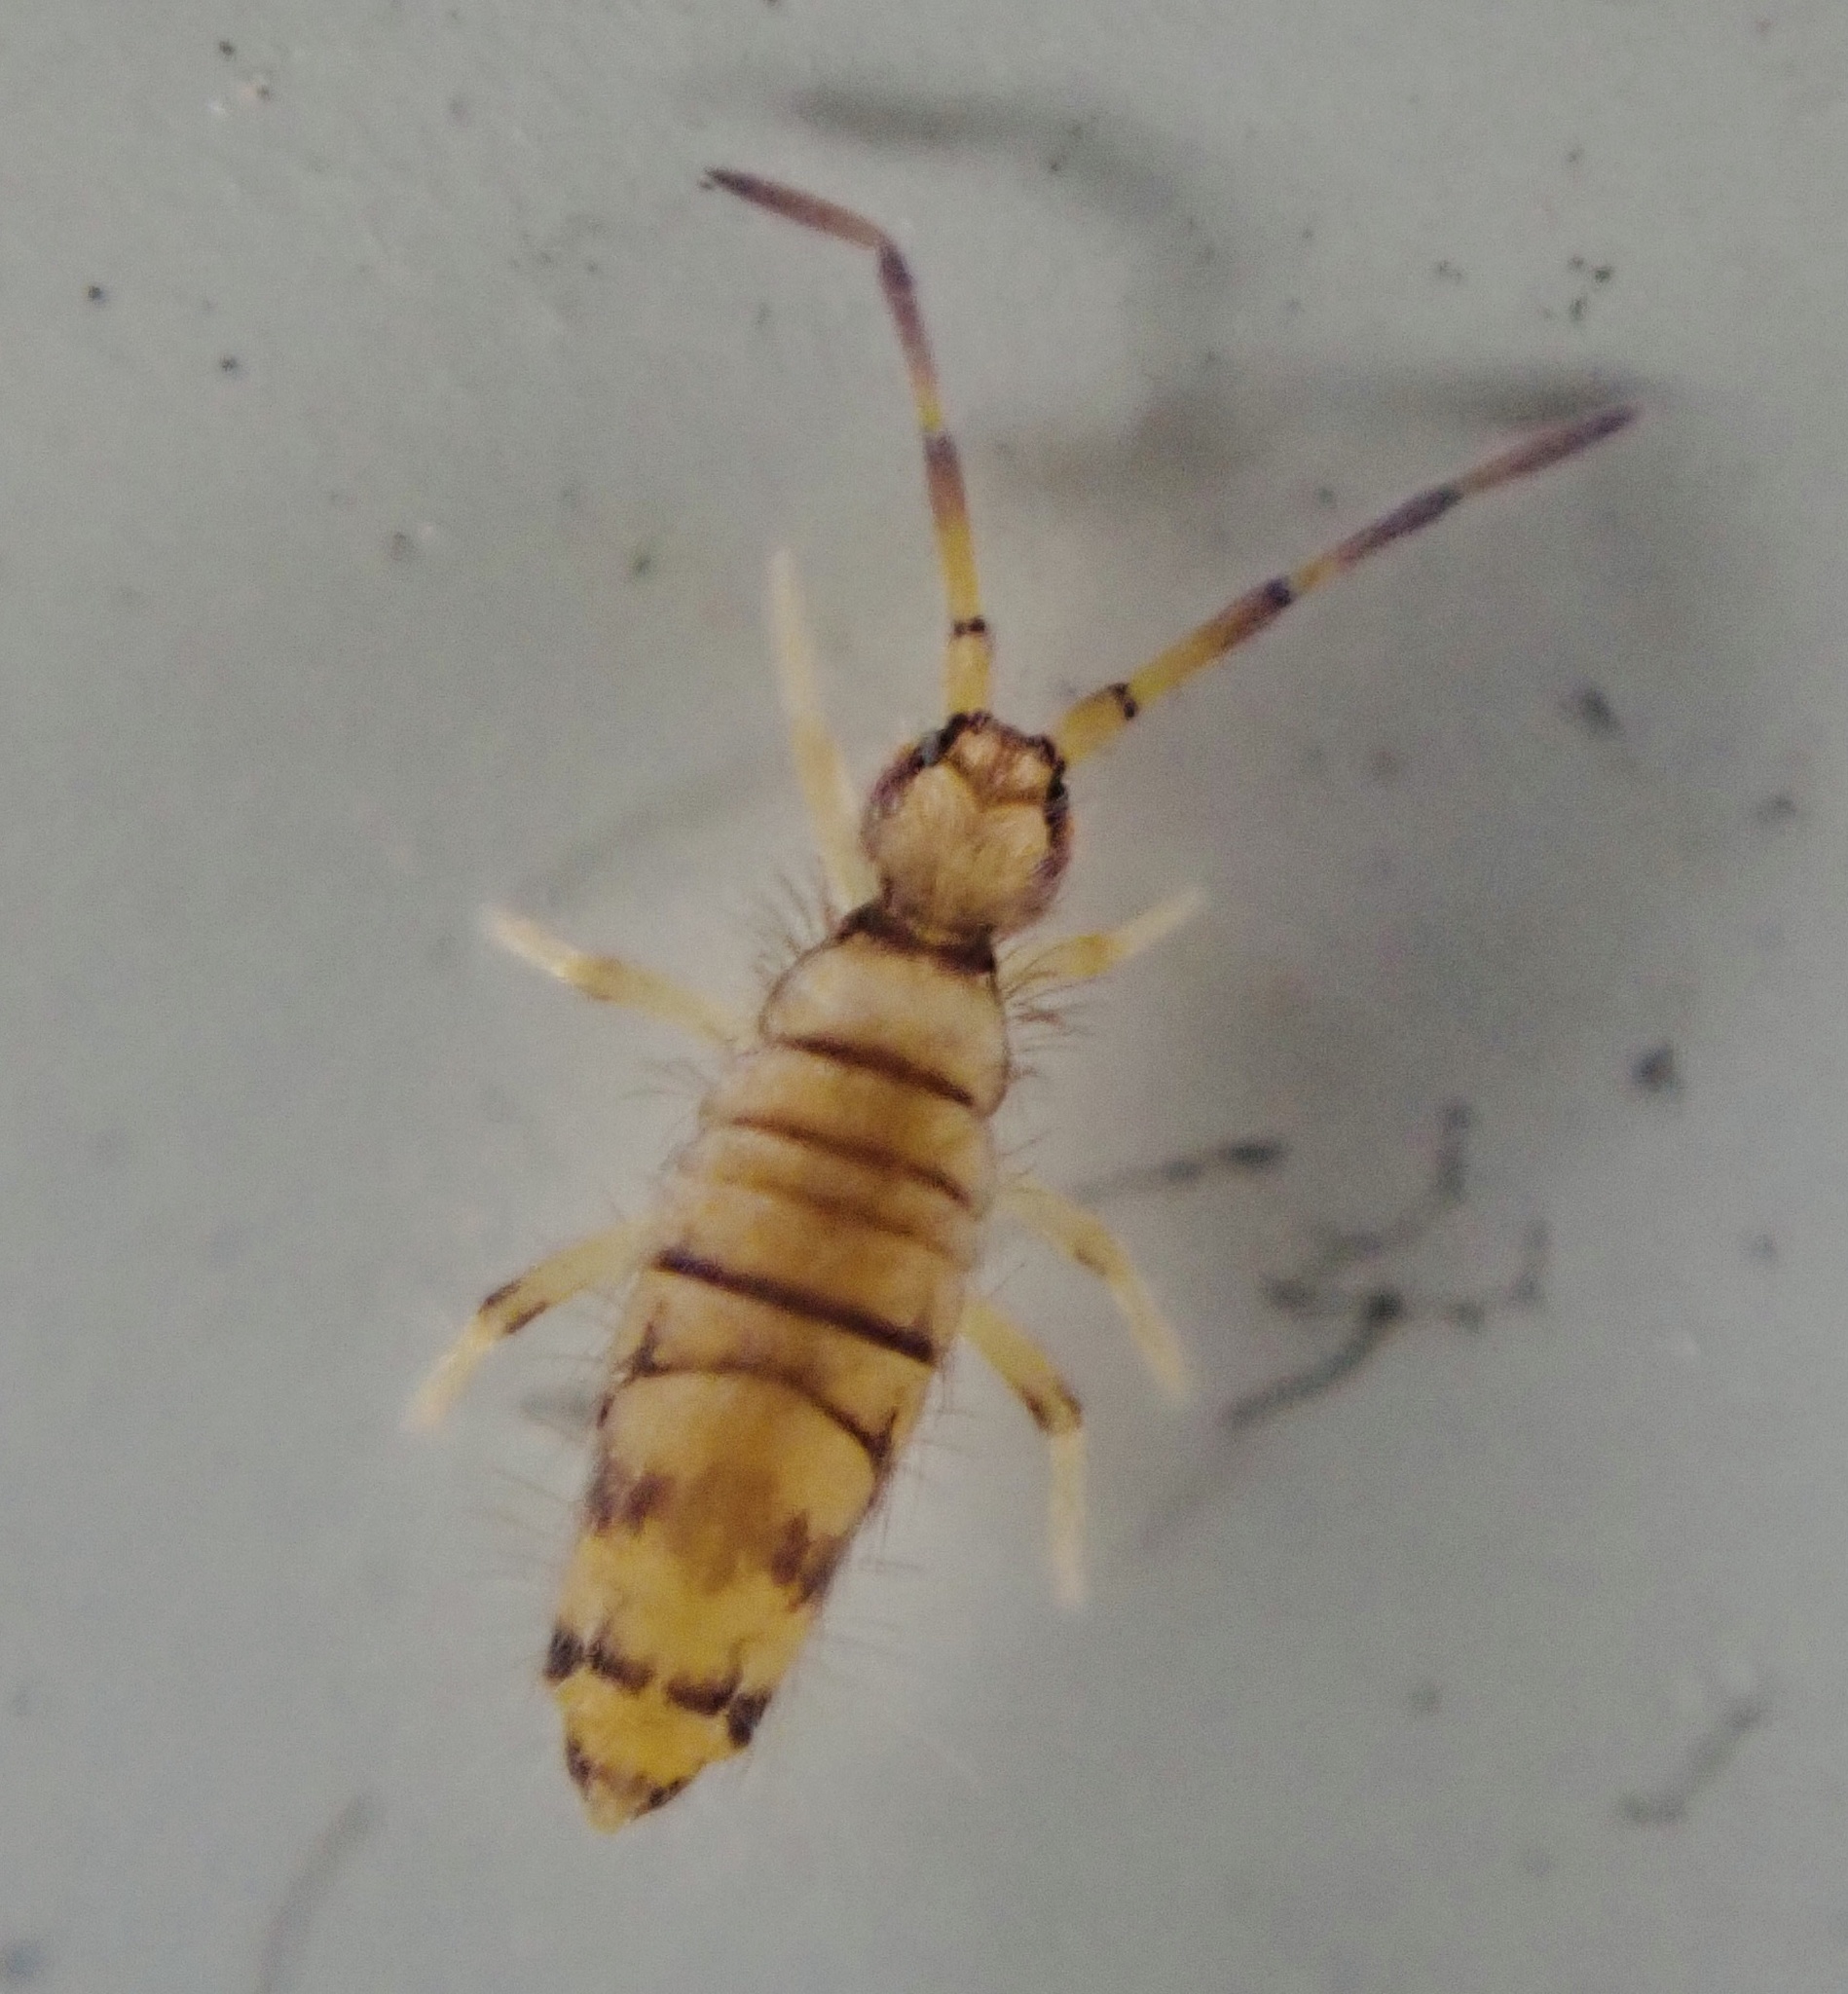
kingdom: Animalia
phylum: Arthropoda
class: Collembola
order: Entomobryomorpha
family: Entomobryidae
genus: Entomobrya
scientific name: Entomobrya atrocincta
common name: Springtail
